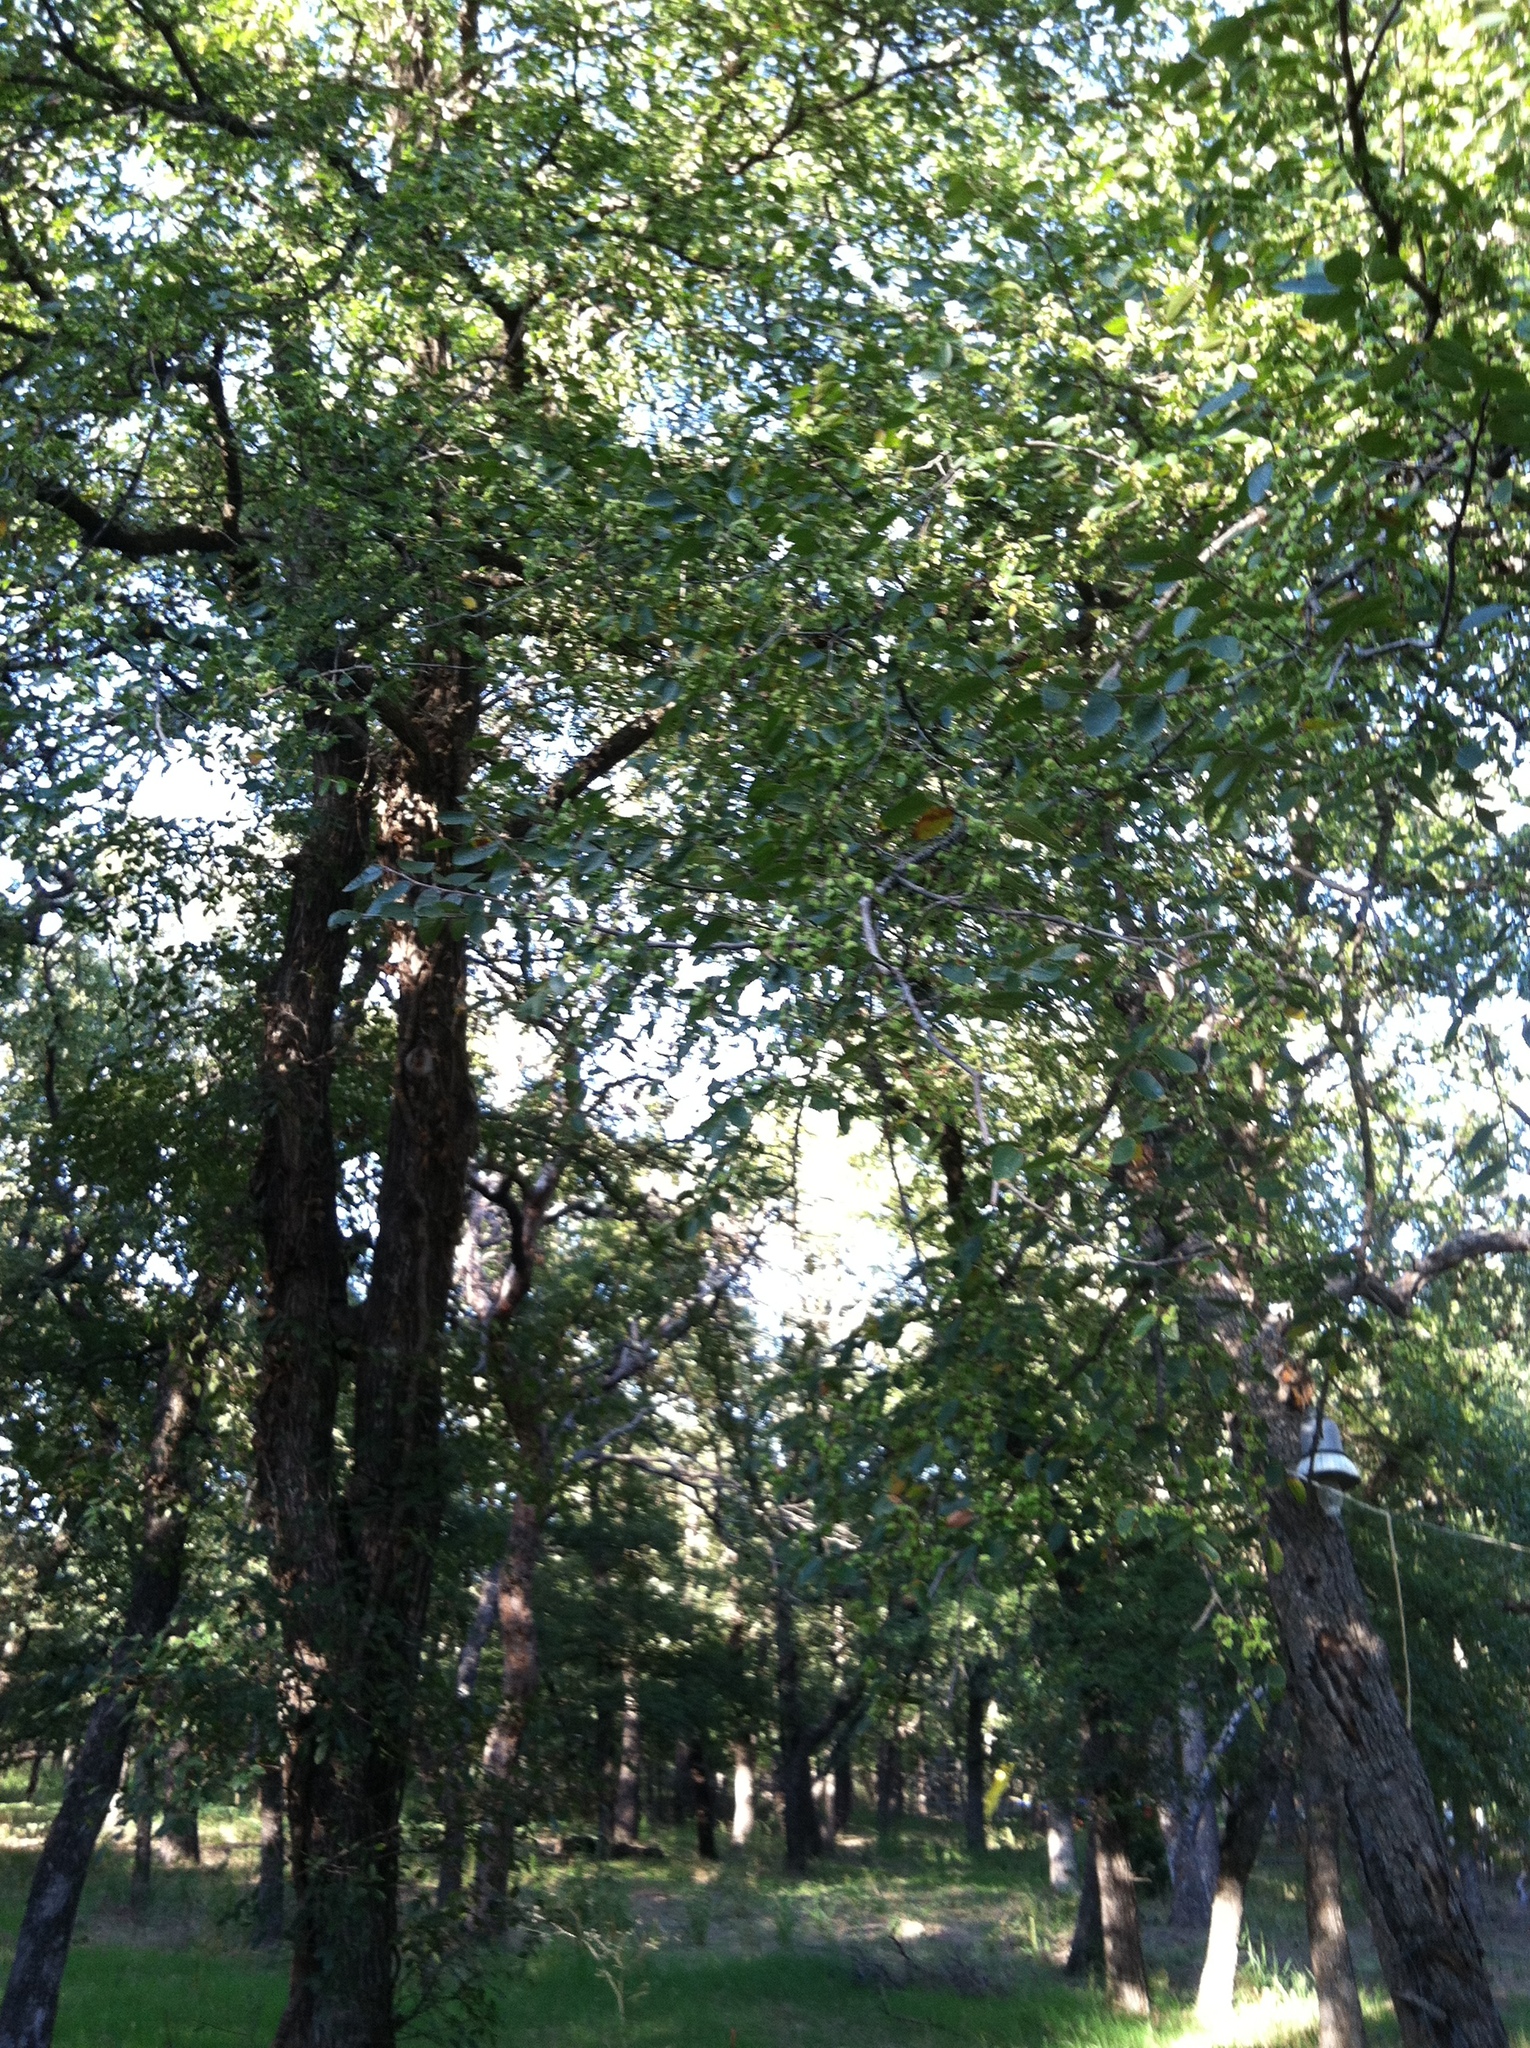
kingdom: Plantae
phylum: Tracheophyta
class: Magnoliopsida
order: Rosales
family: Ulmaceae
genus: Ulmus
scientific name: Ulmus crassifolia
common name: Basket elm
